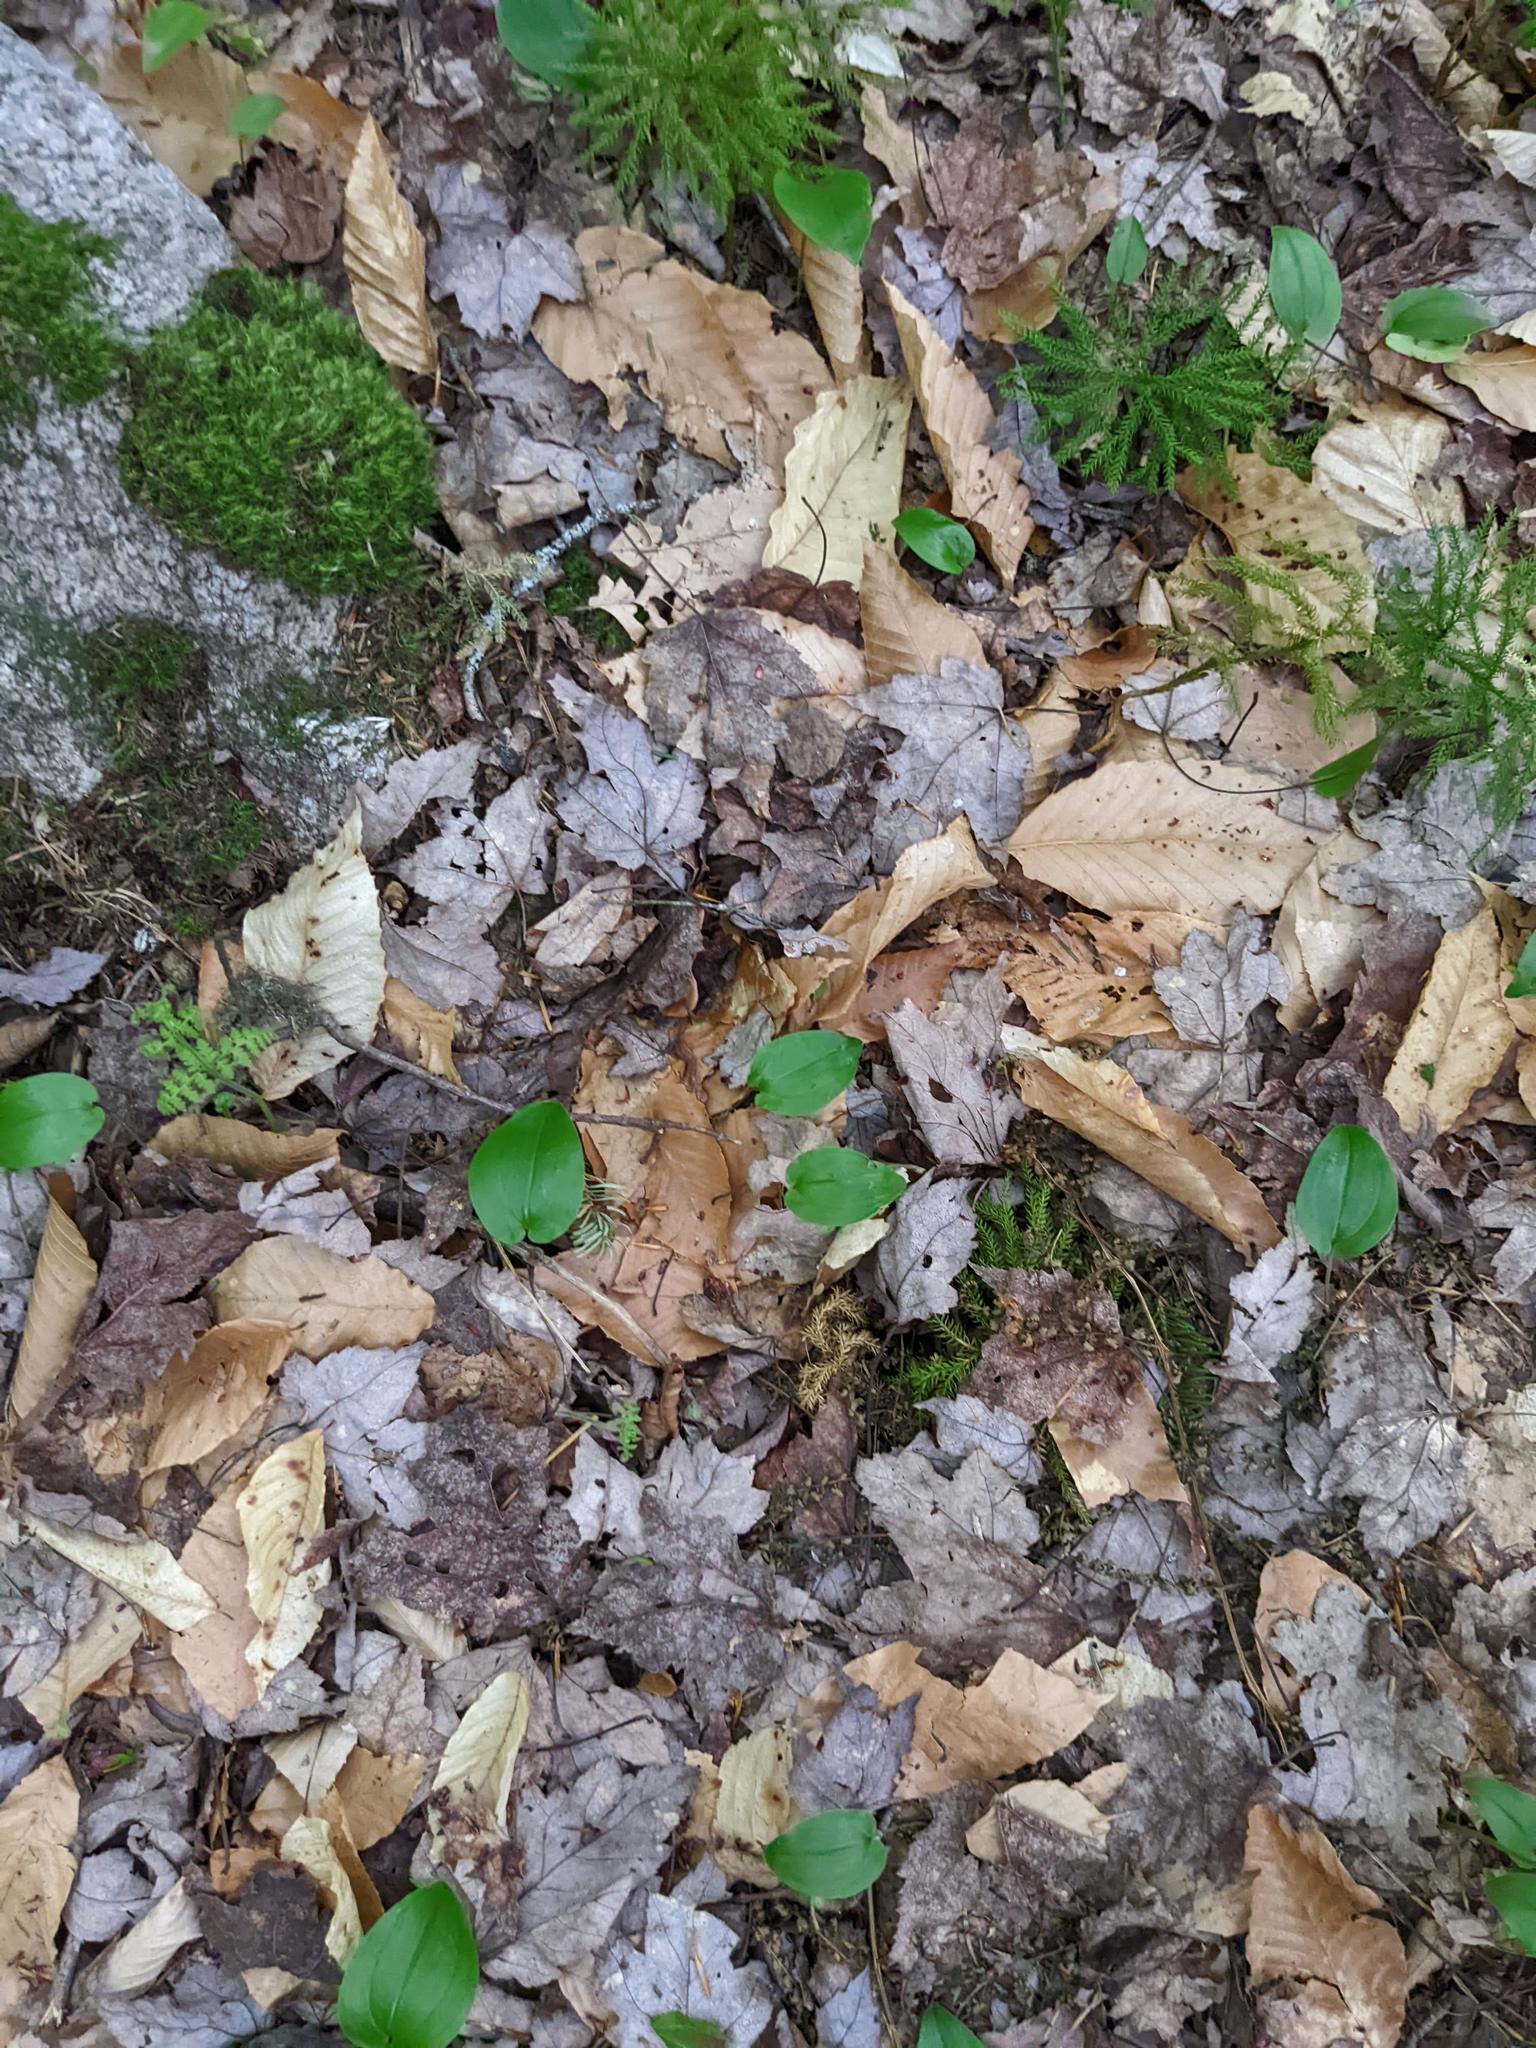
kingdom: Plantae
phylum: Tracheophyta
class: Liliopsida
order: Asparagales
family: Asparagaceae
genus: Maianthemum
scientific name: Maianthemum canadense
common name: False lily-of-the-valley
